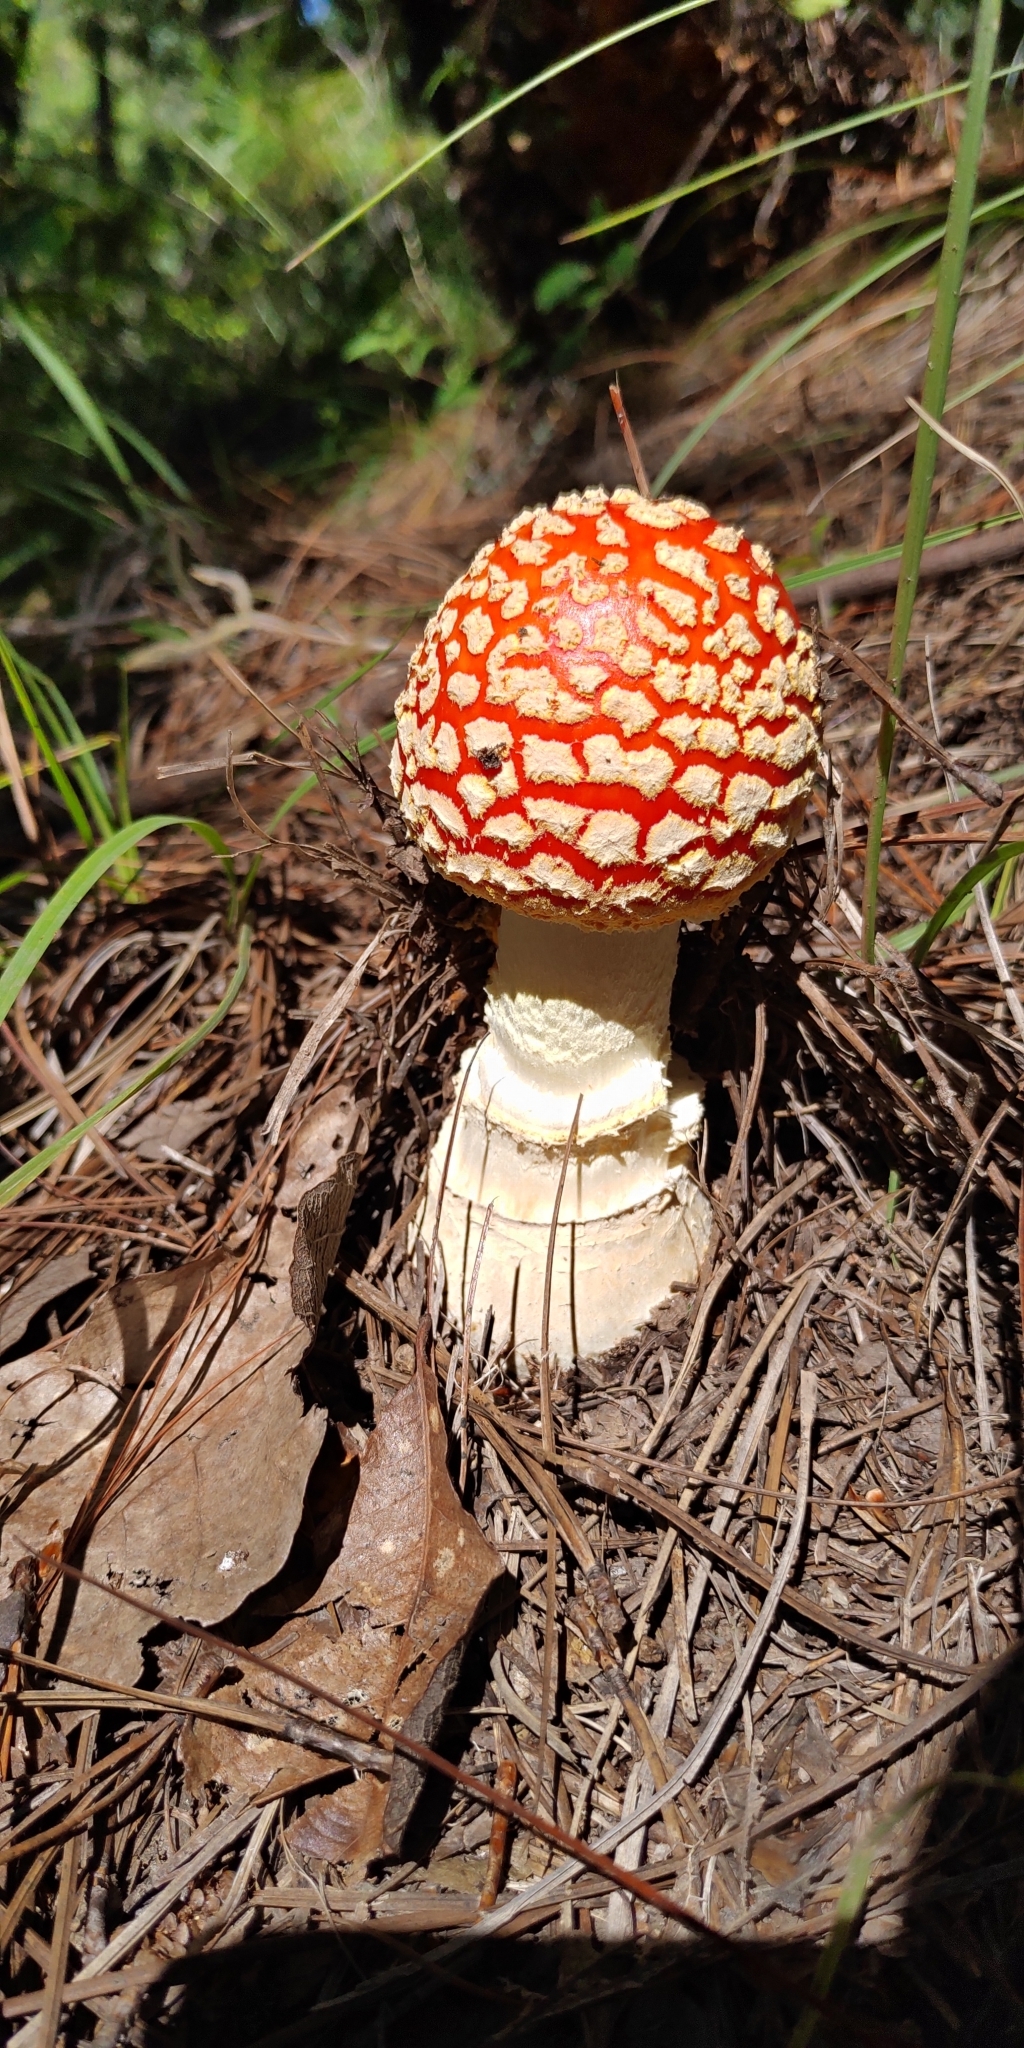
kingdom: Fungi
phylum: Basidiomycota
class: Agaricomycetes
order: Agaricales
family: Amanitaceae
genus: Amanita
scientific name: Amanita muscaria
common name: Fly agaric
